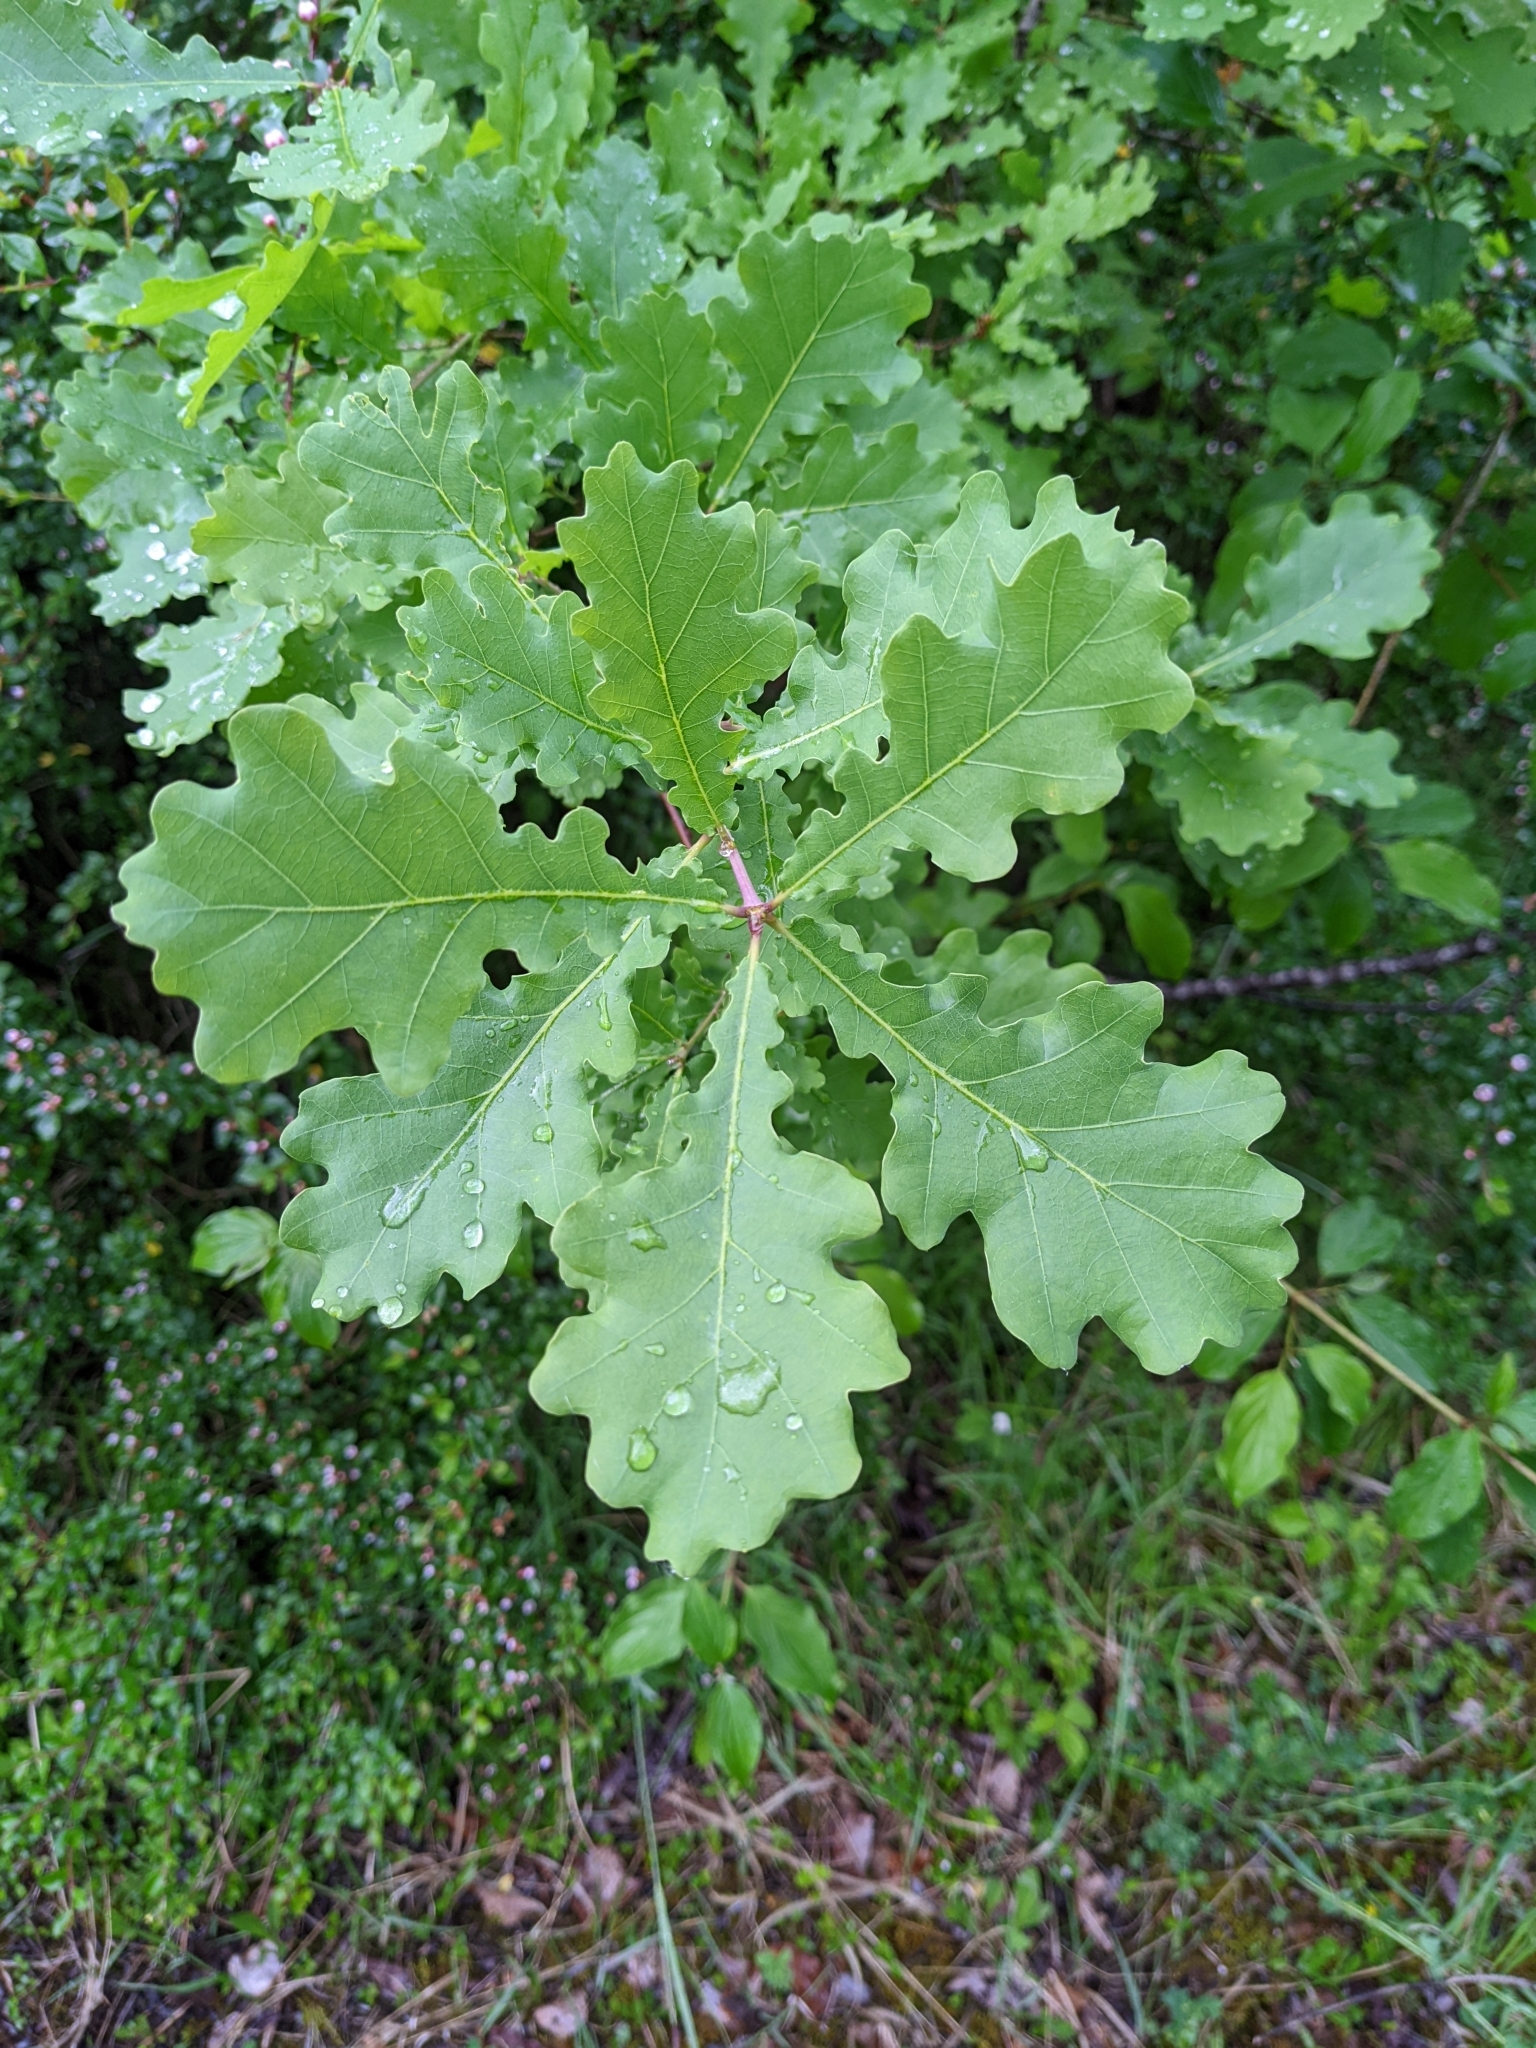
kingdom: Plantae
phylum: Tracheophyta
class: Magnoliopsida
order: Fagales
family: Fagaceae
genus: Quercus
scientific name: Quercus robur
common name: Pedunculate oak
